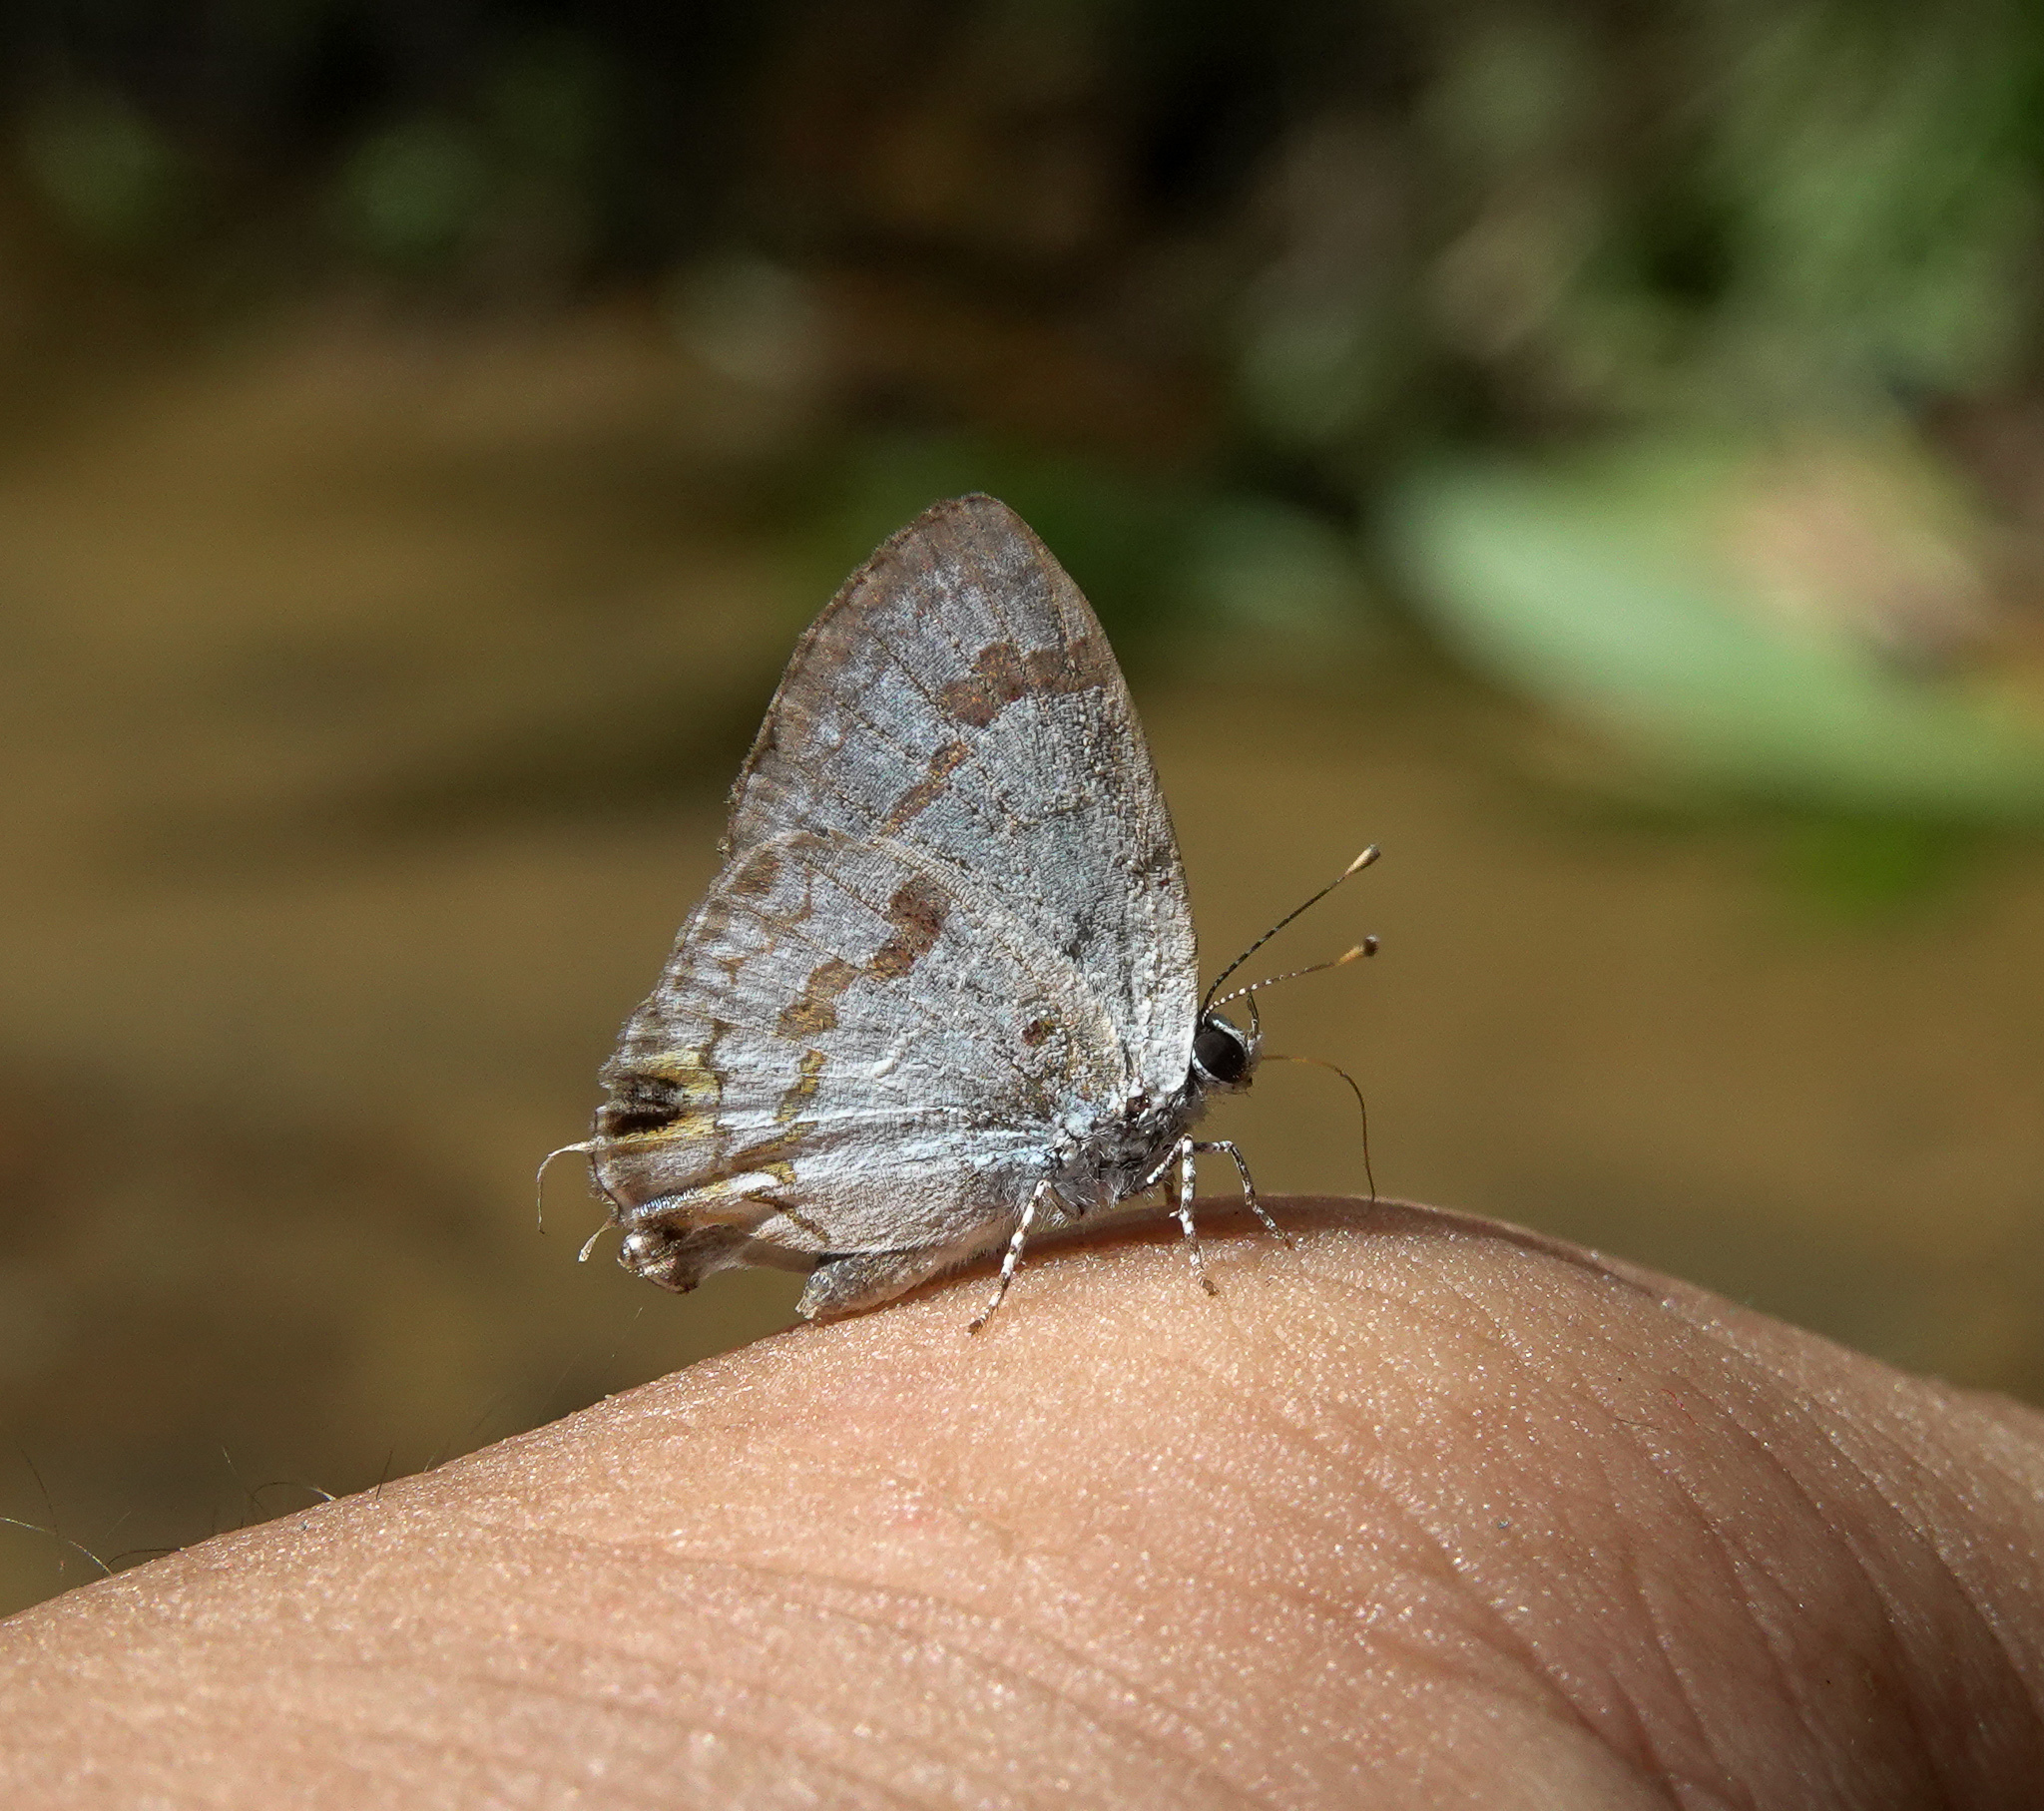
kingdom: Animalia
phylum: Arthropoda
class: Insecta
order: Lepidoptera
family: Lycaenidae
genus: Chliaria
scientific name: Chliaria othona
